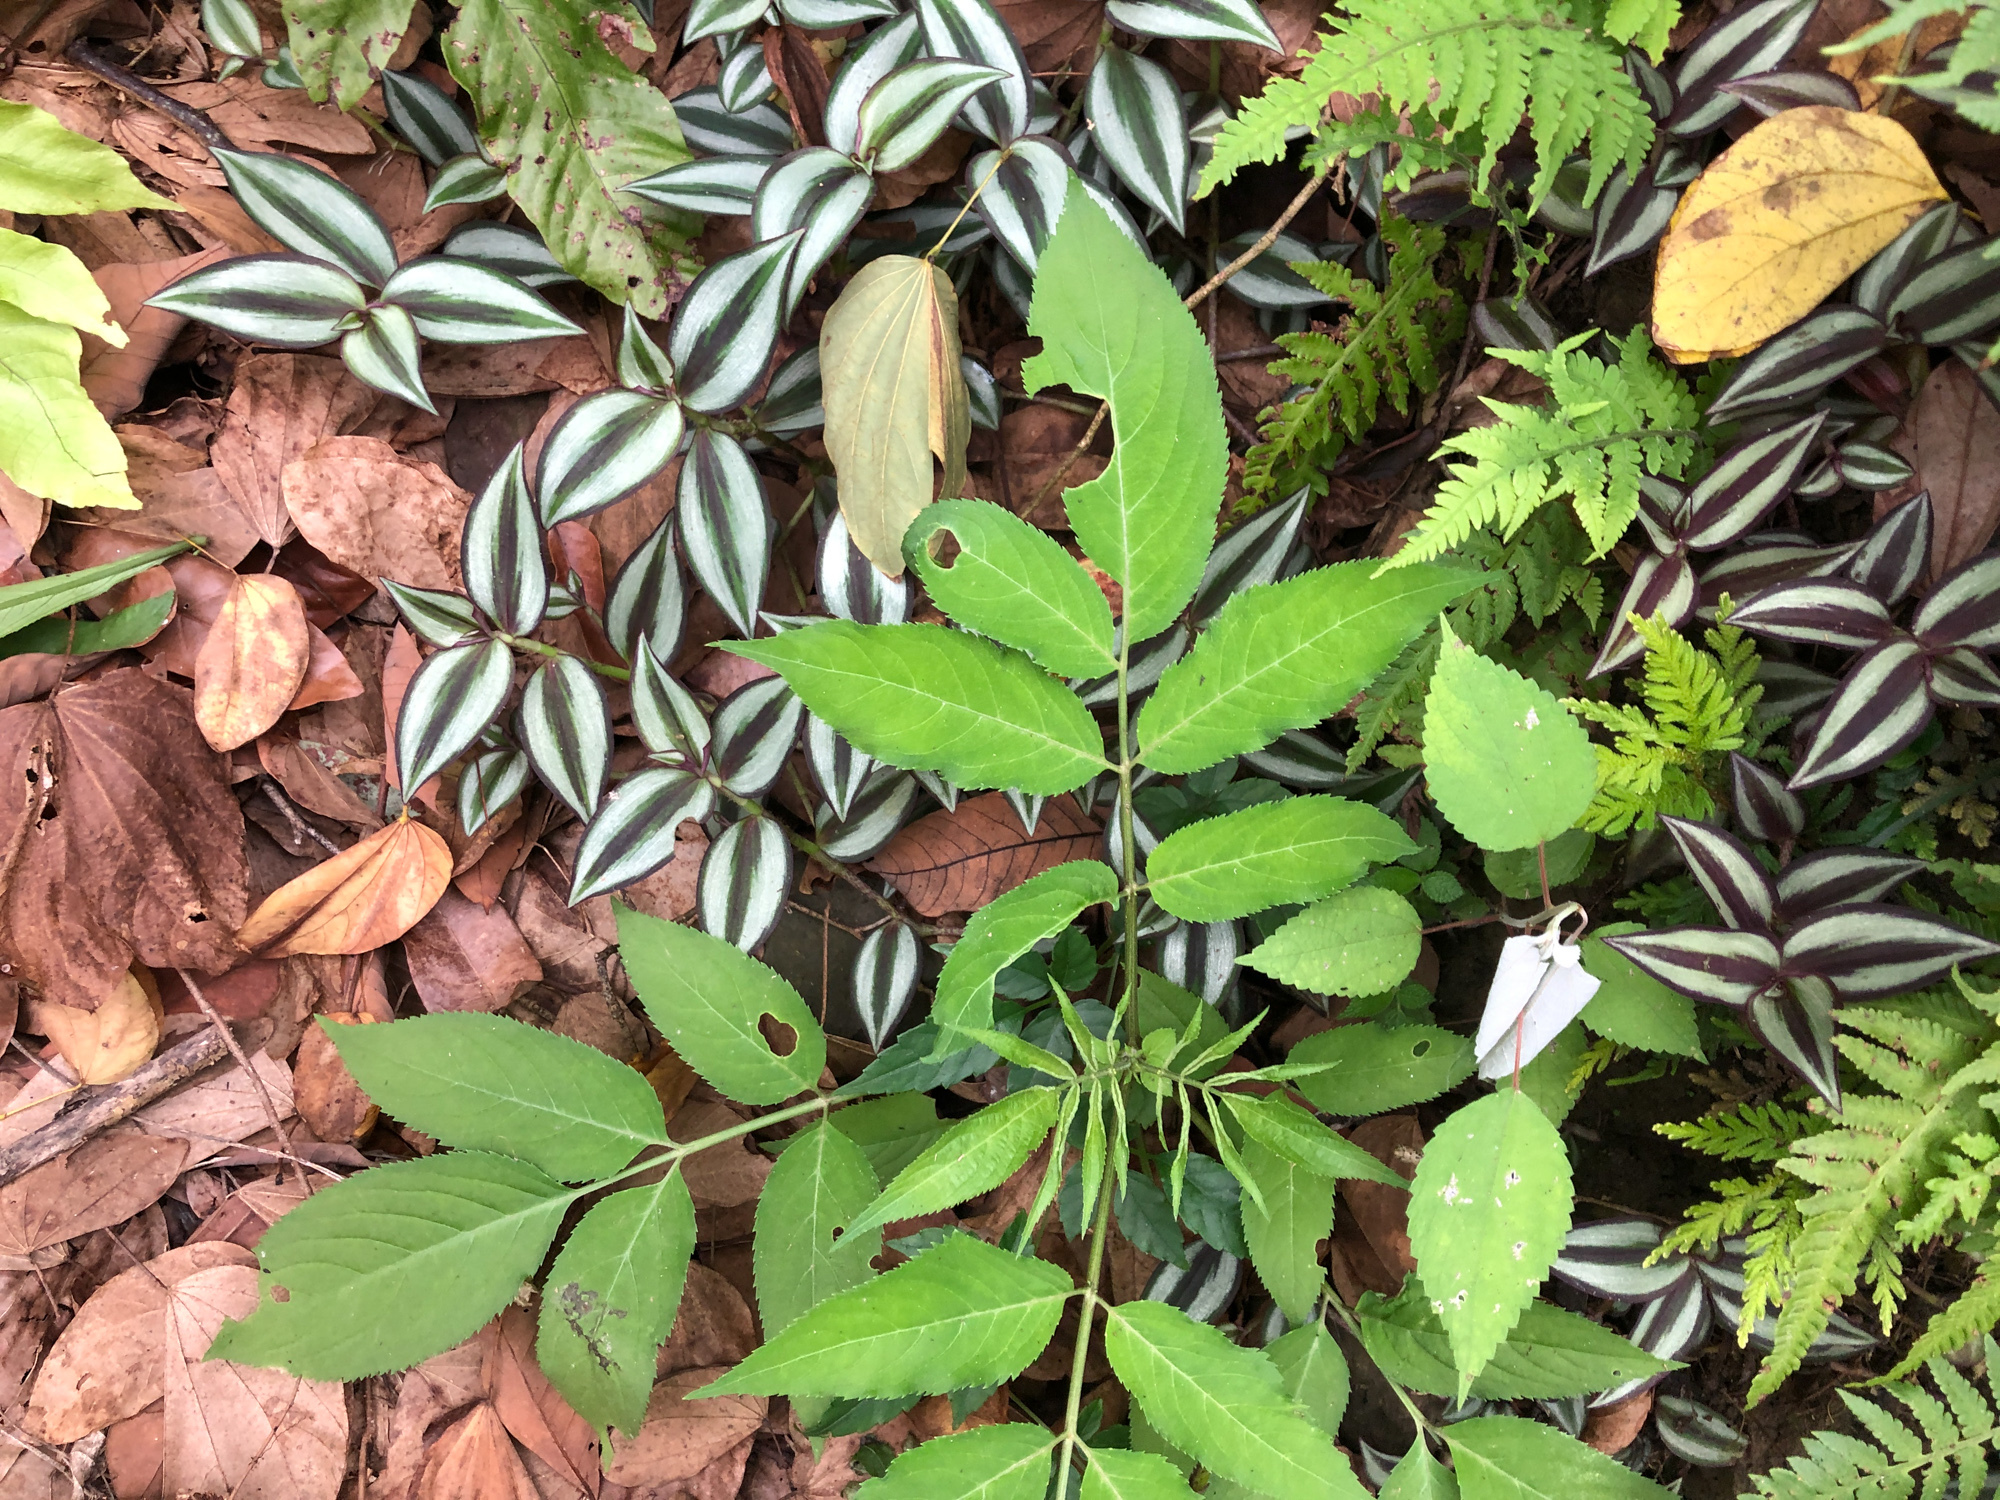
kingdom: Plantae
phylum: Tracheophyta
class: Magnoliopsida
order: Dipsacales
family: Viburnaceae
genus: Sambucus
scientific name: Sambucus javanica
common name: Chinese elder
